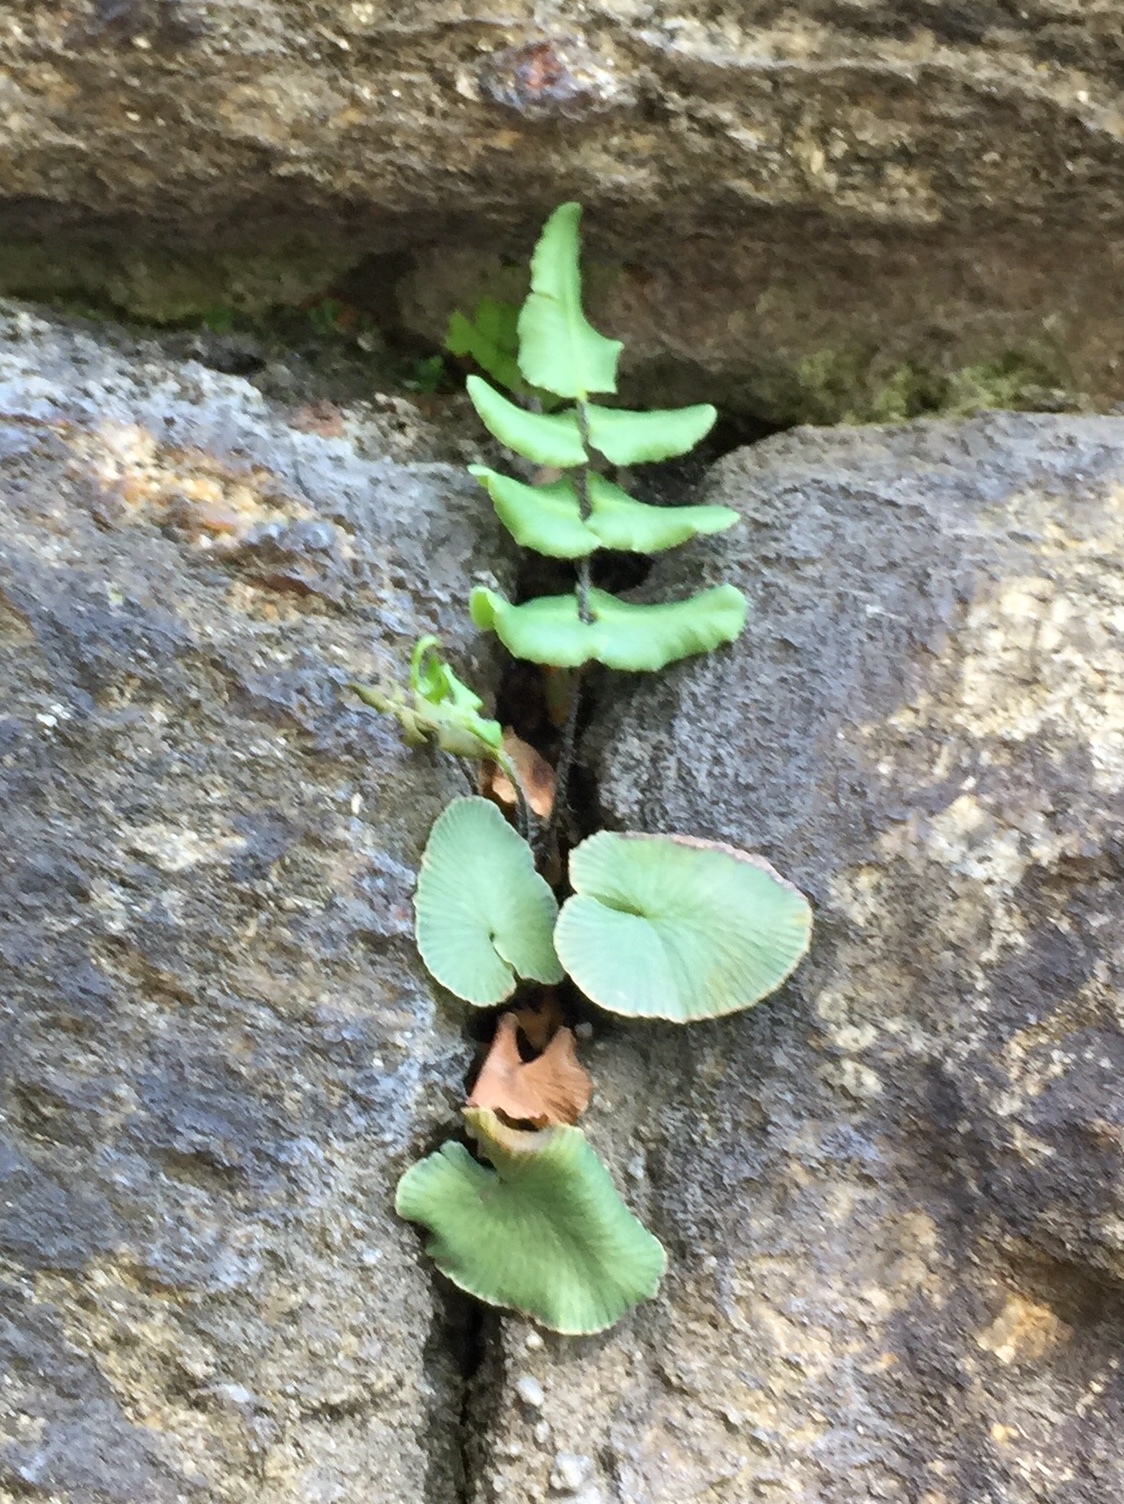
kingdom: Plantae
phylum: Tracheophyta
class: Polypodiopsida
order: Polypodiales
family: Pteridaceae
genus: Pellaea
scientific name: Pellaea atropurpurea
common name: Hairy cliffbrake
